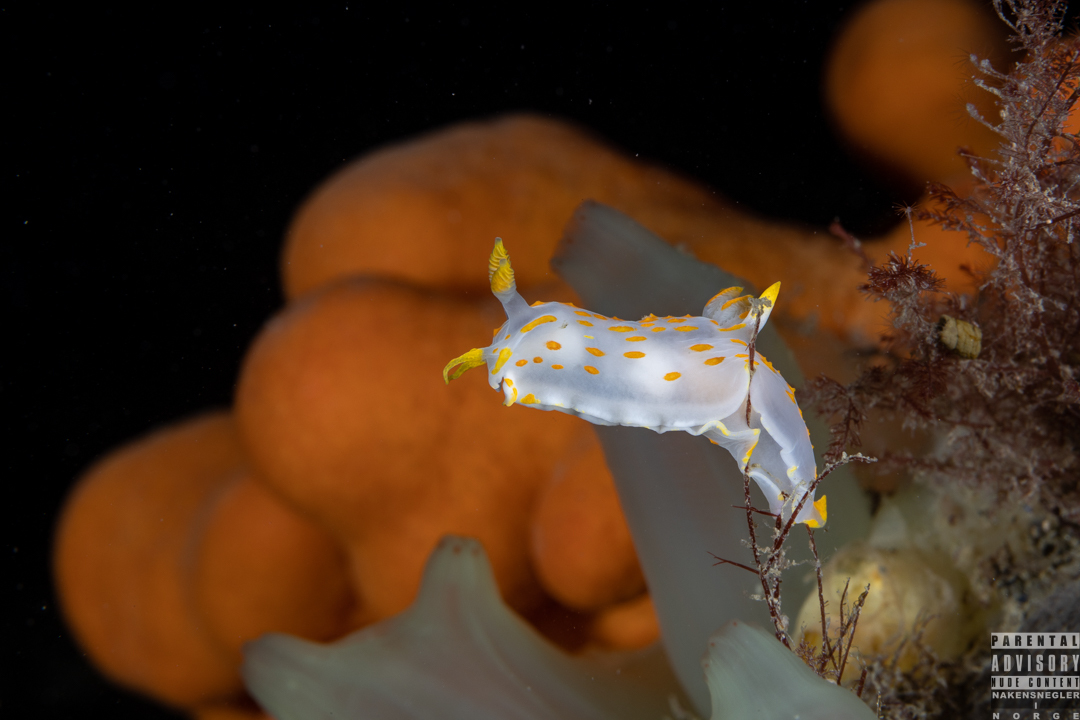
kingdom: Animalia
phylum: Mollusca
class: Gastropoda
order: Nudibranchia
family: Polyceridae
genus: Polycera
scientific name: Polycera quadrilineata
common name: Four-striped polycera
